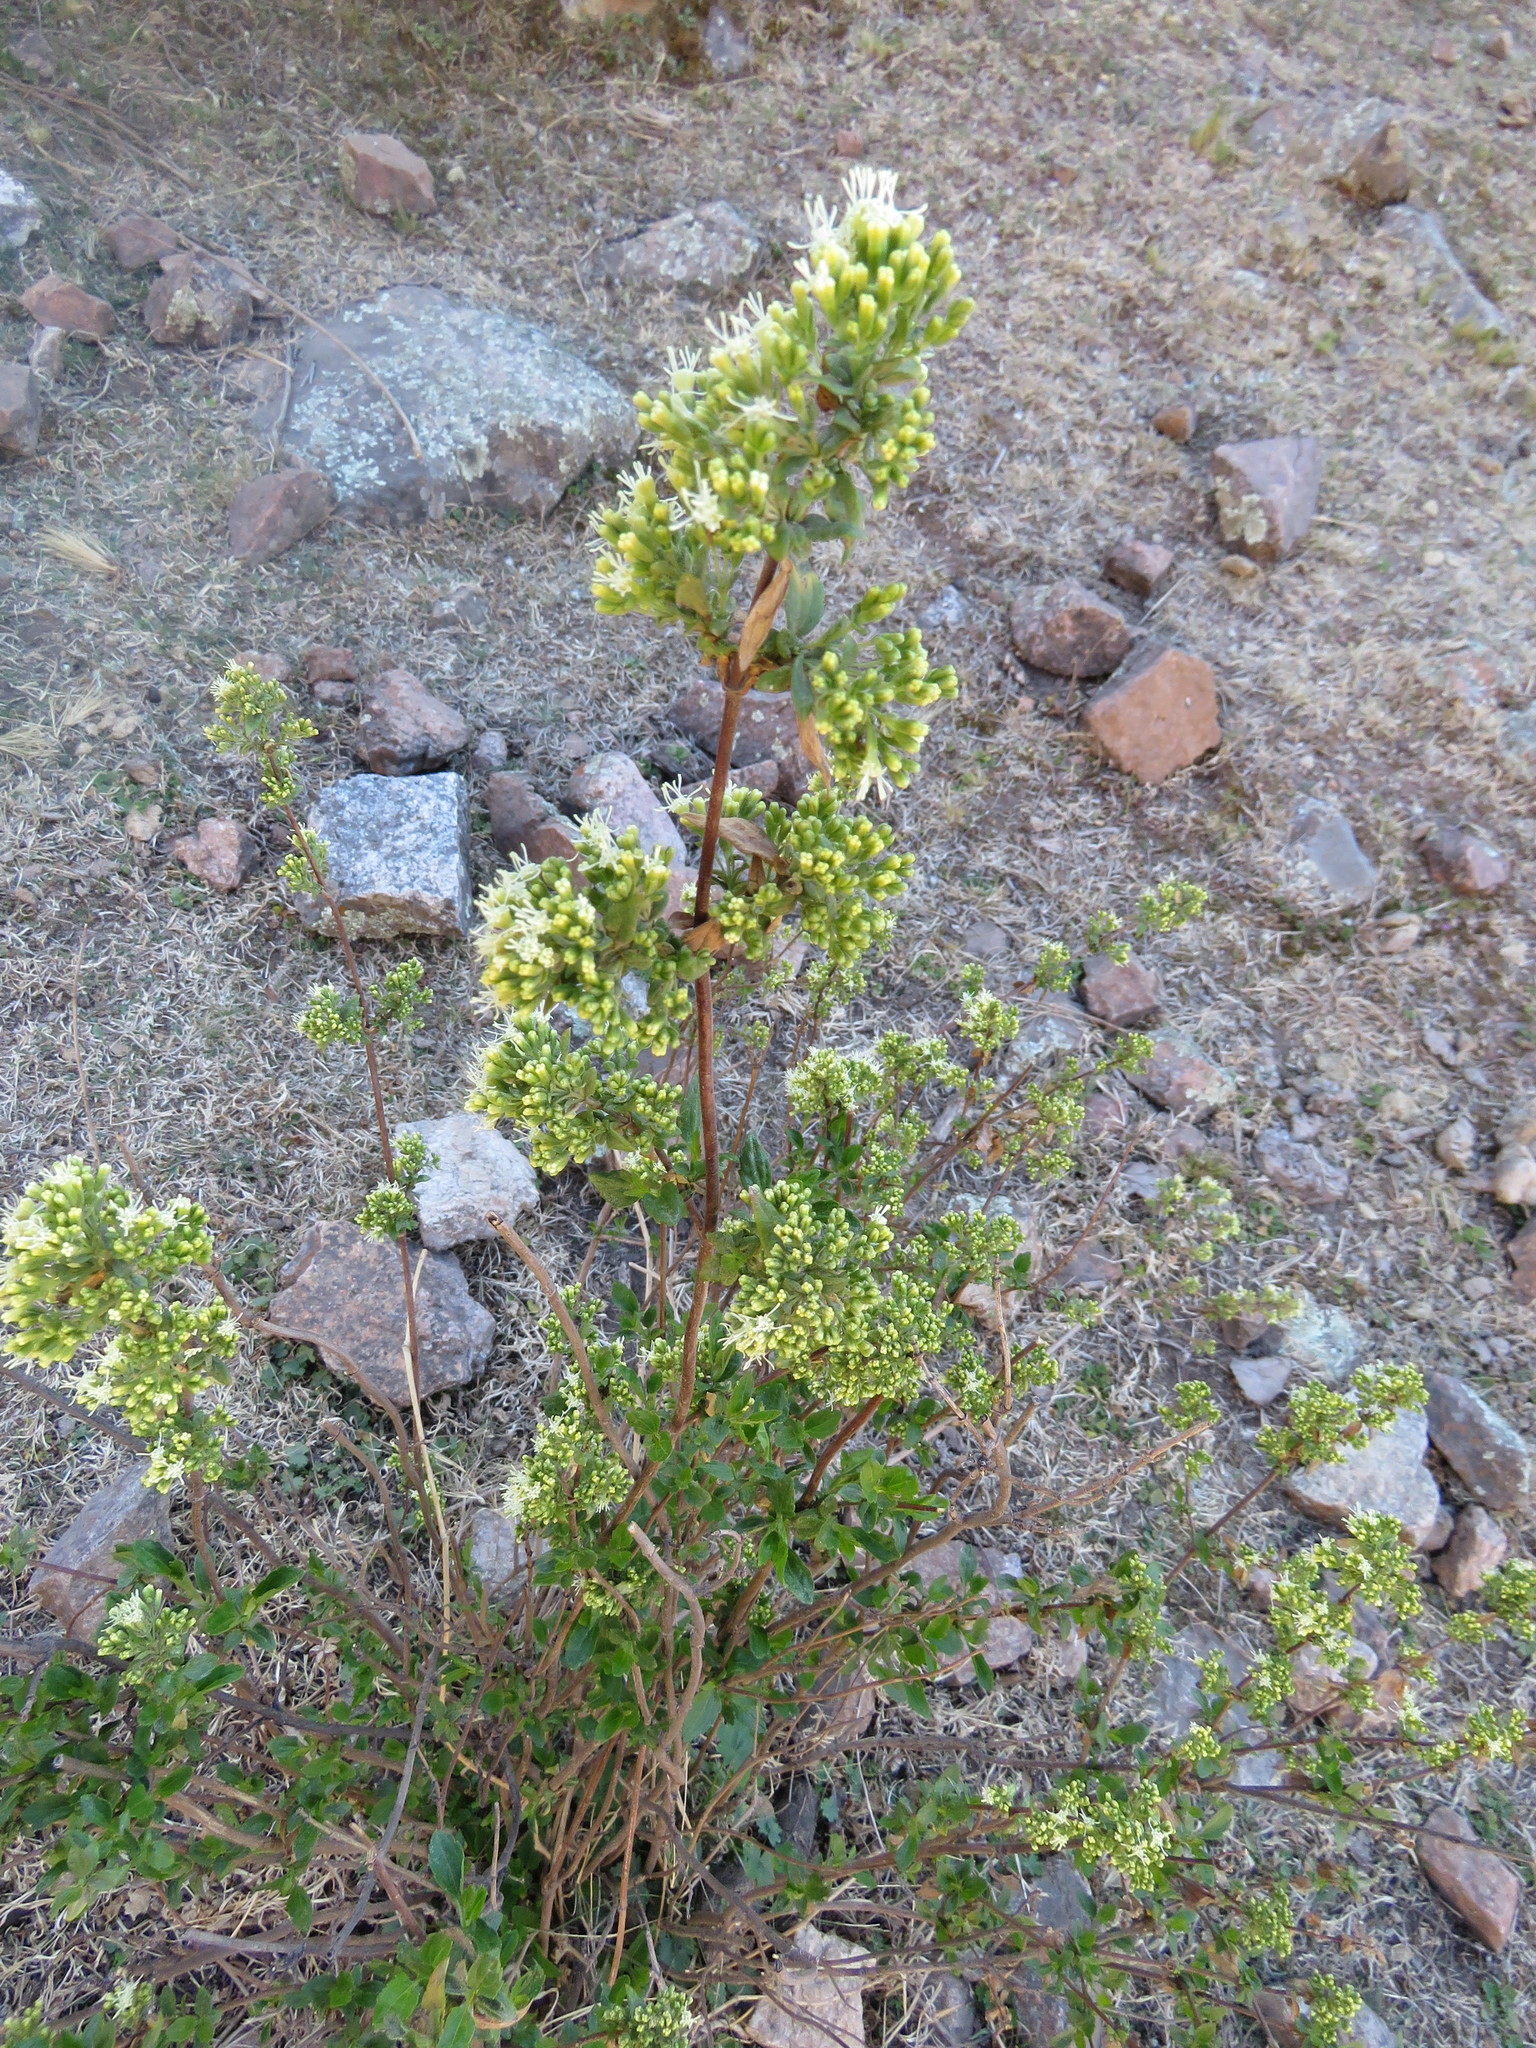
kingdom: Plantae
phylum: Tracheophyta
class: Magnoliopsida
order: Asterales
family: Asteraceae
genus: Ophryosporus
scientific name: Ophryosporus charua
